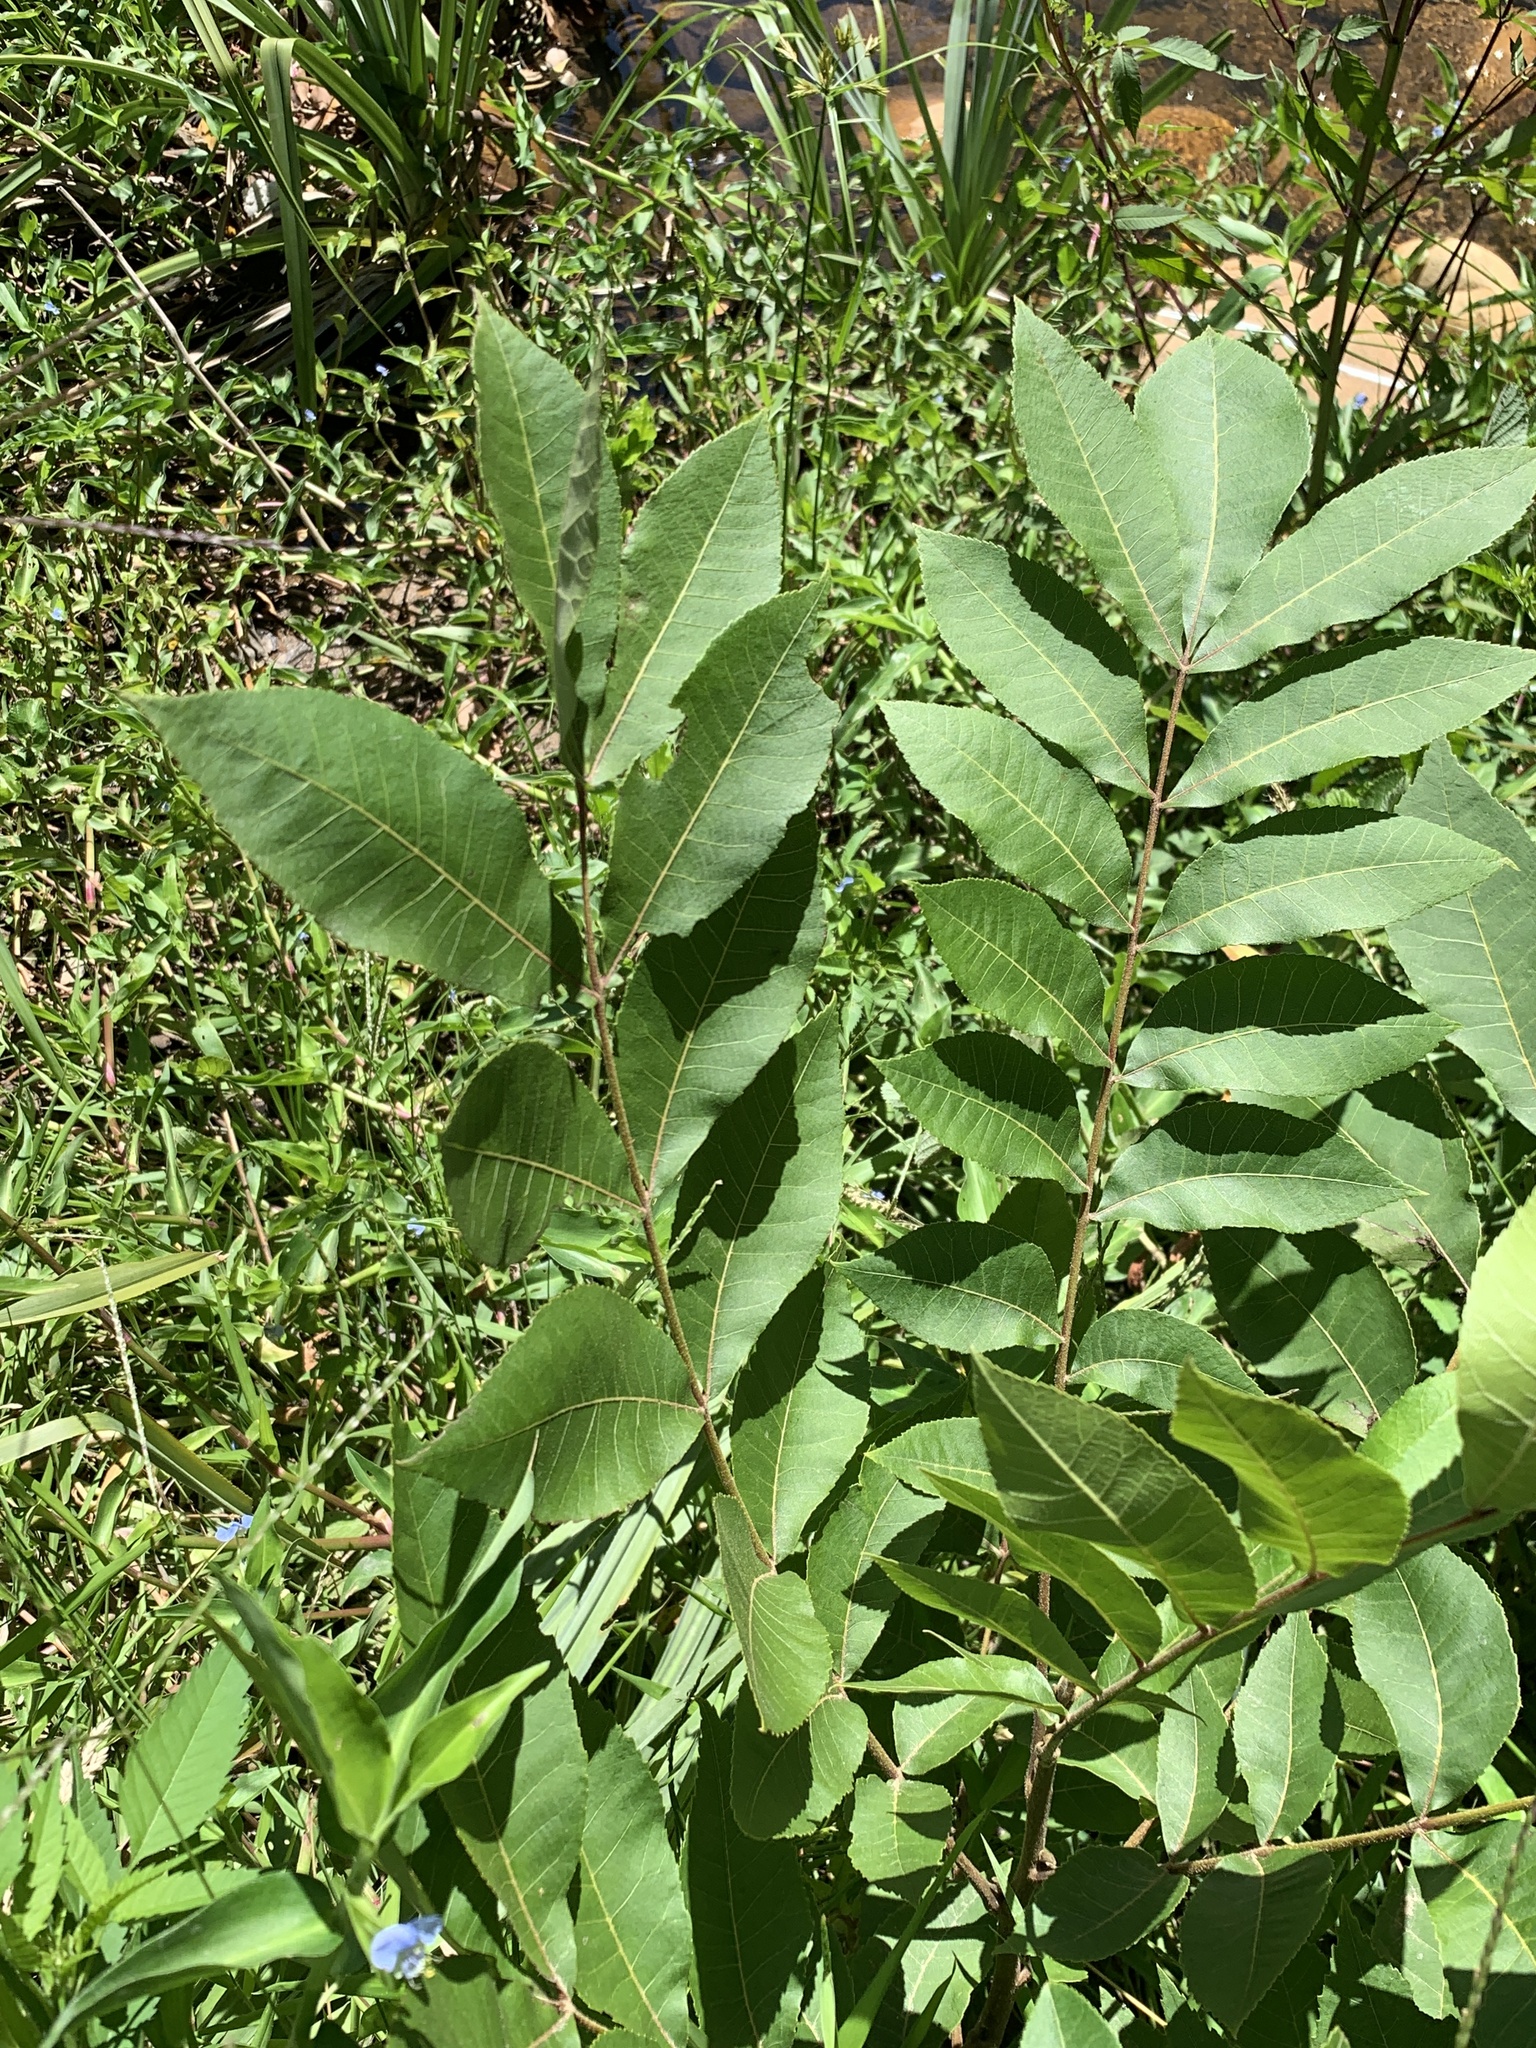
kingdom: Plantae
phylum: Tracheophyta
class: Magnoliopsida
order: Fagales
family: Juglandaceae
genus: Carya
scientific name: Carya illinoinensis
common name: Pecan
